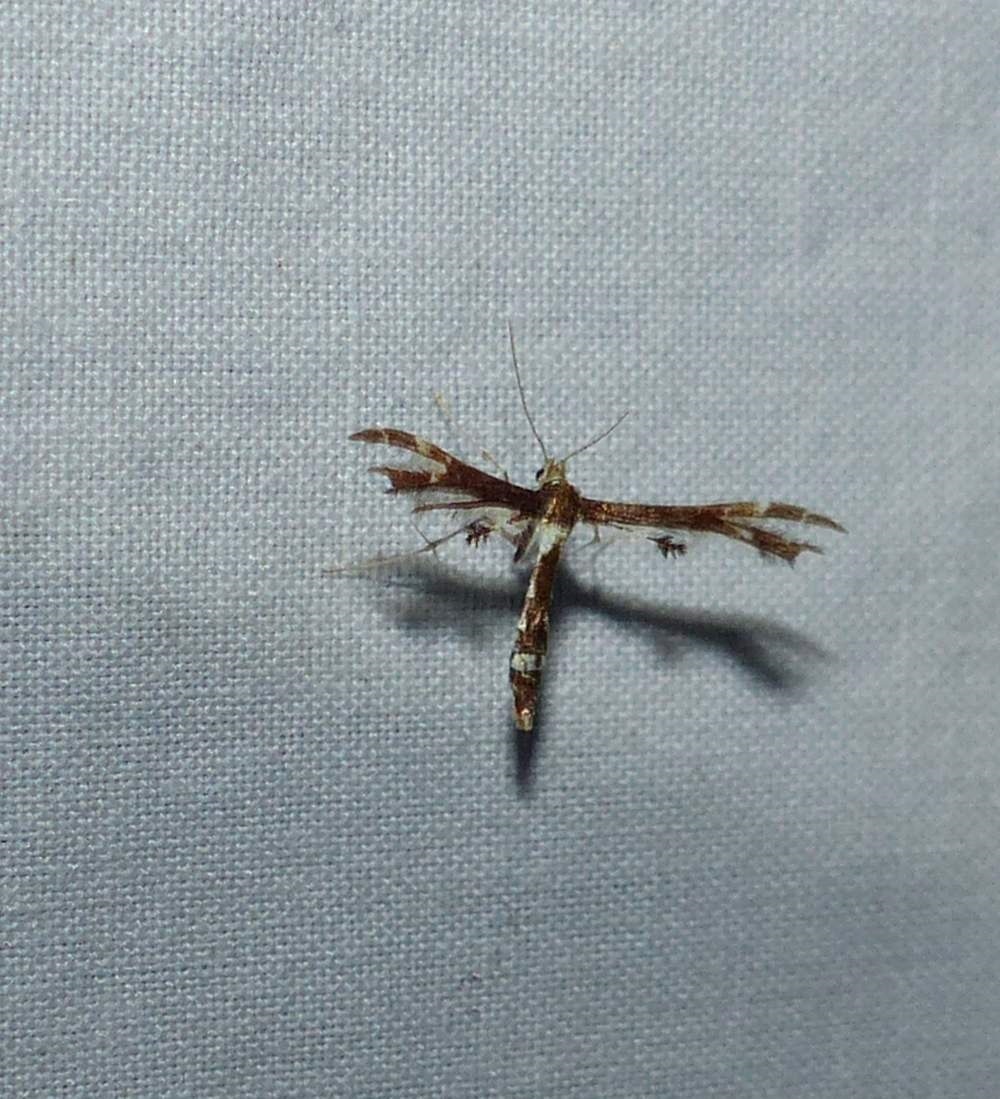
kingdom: Animalia
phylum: Arthropoda
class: Insecta
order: Lepidoptera
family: Pterophoridae
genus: Geina
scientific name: Geina
